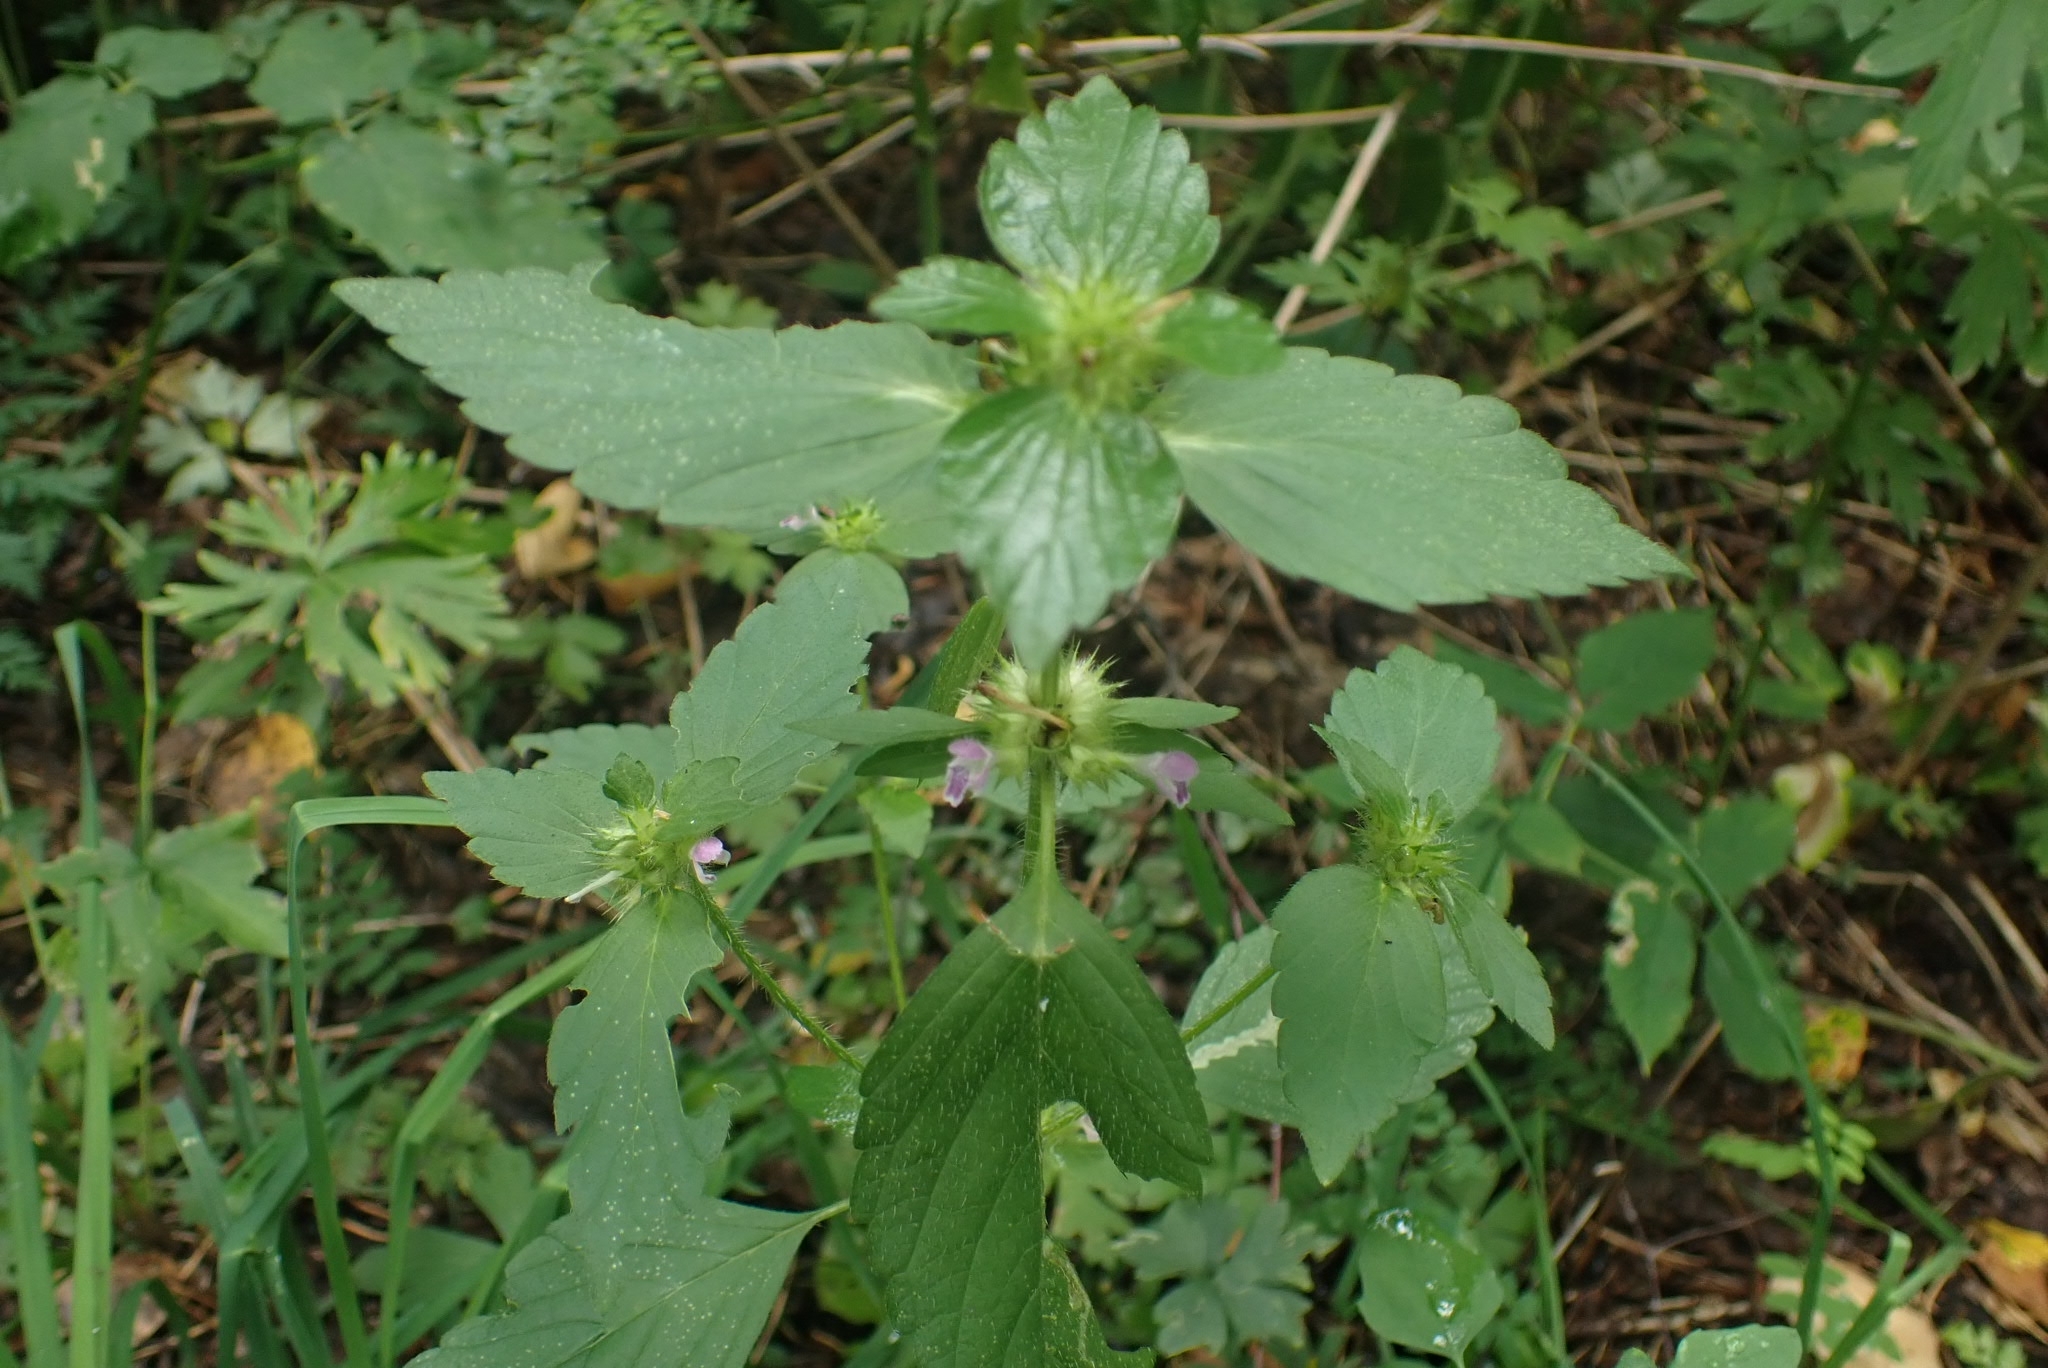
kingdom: Plantae
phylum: Tracheophyta
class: Magnoliopsida
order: Lamiales
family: Lamiaceae
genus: Galeopsis
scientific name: Galeopsis bifida
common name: Bifid hemp-nettle
